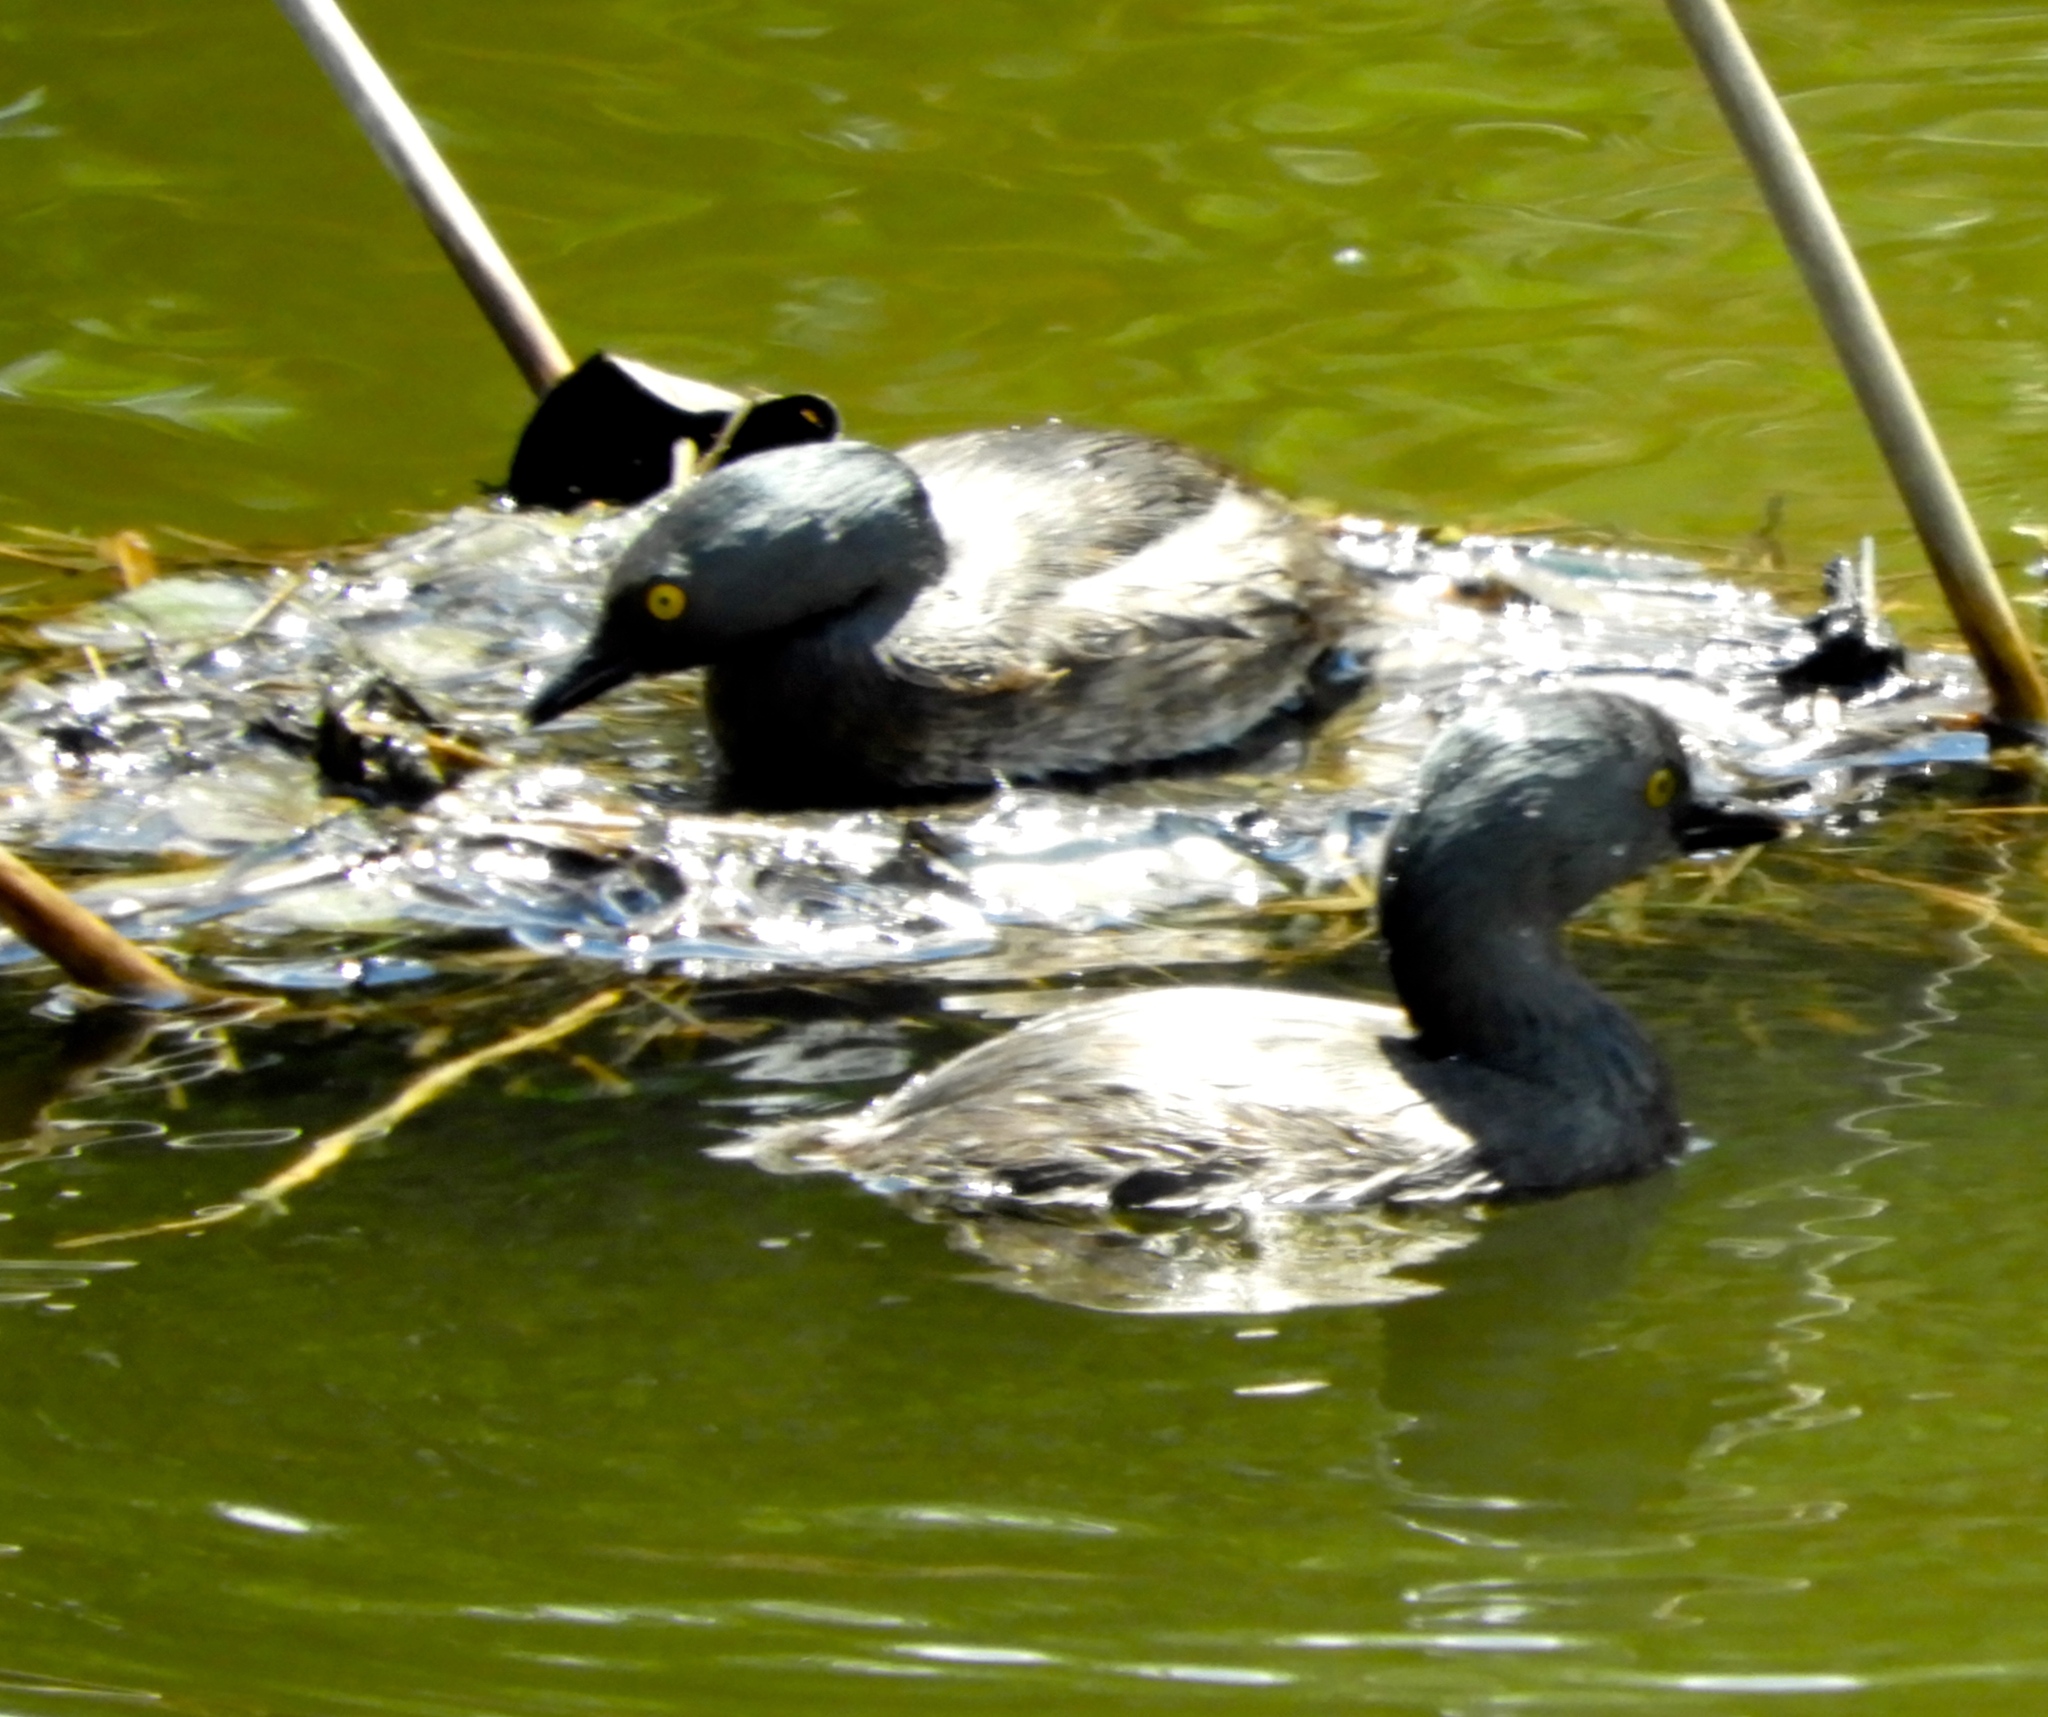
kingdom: Animalia
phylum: Chordata
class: Aves
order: Podicipediformes
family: Podicipedidae
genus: Tachybaptus
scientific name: Tachybaptus dominicus
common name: Least grebe
